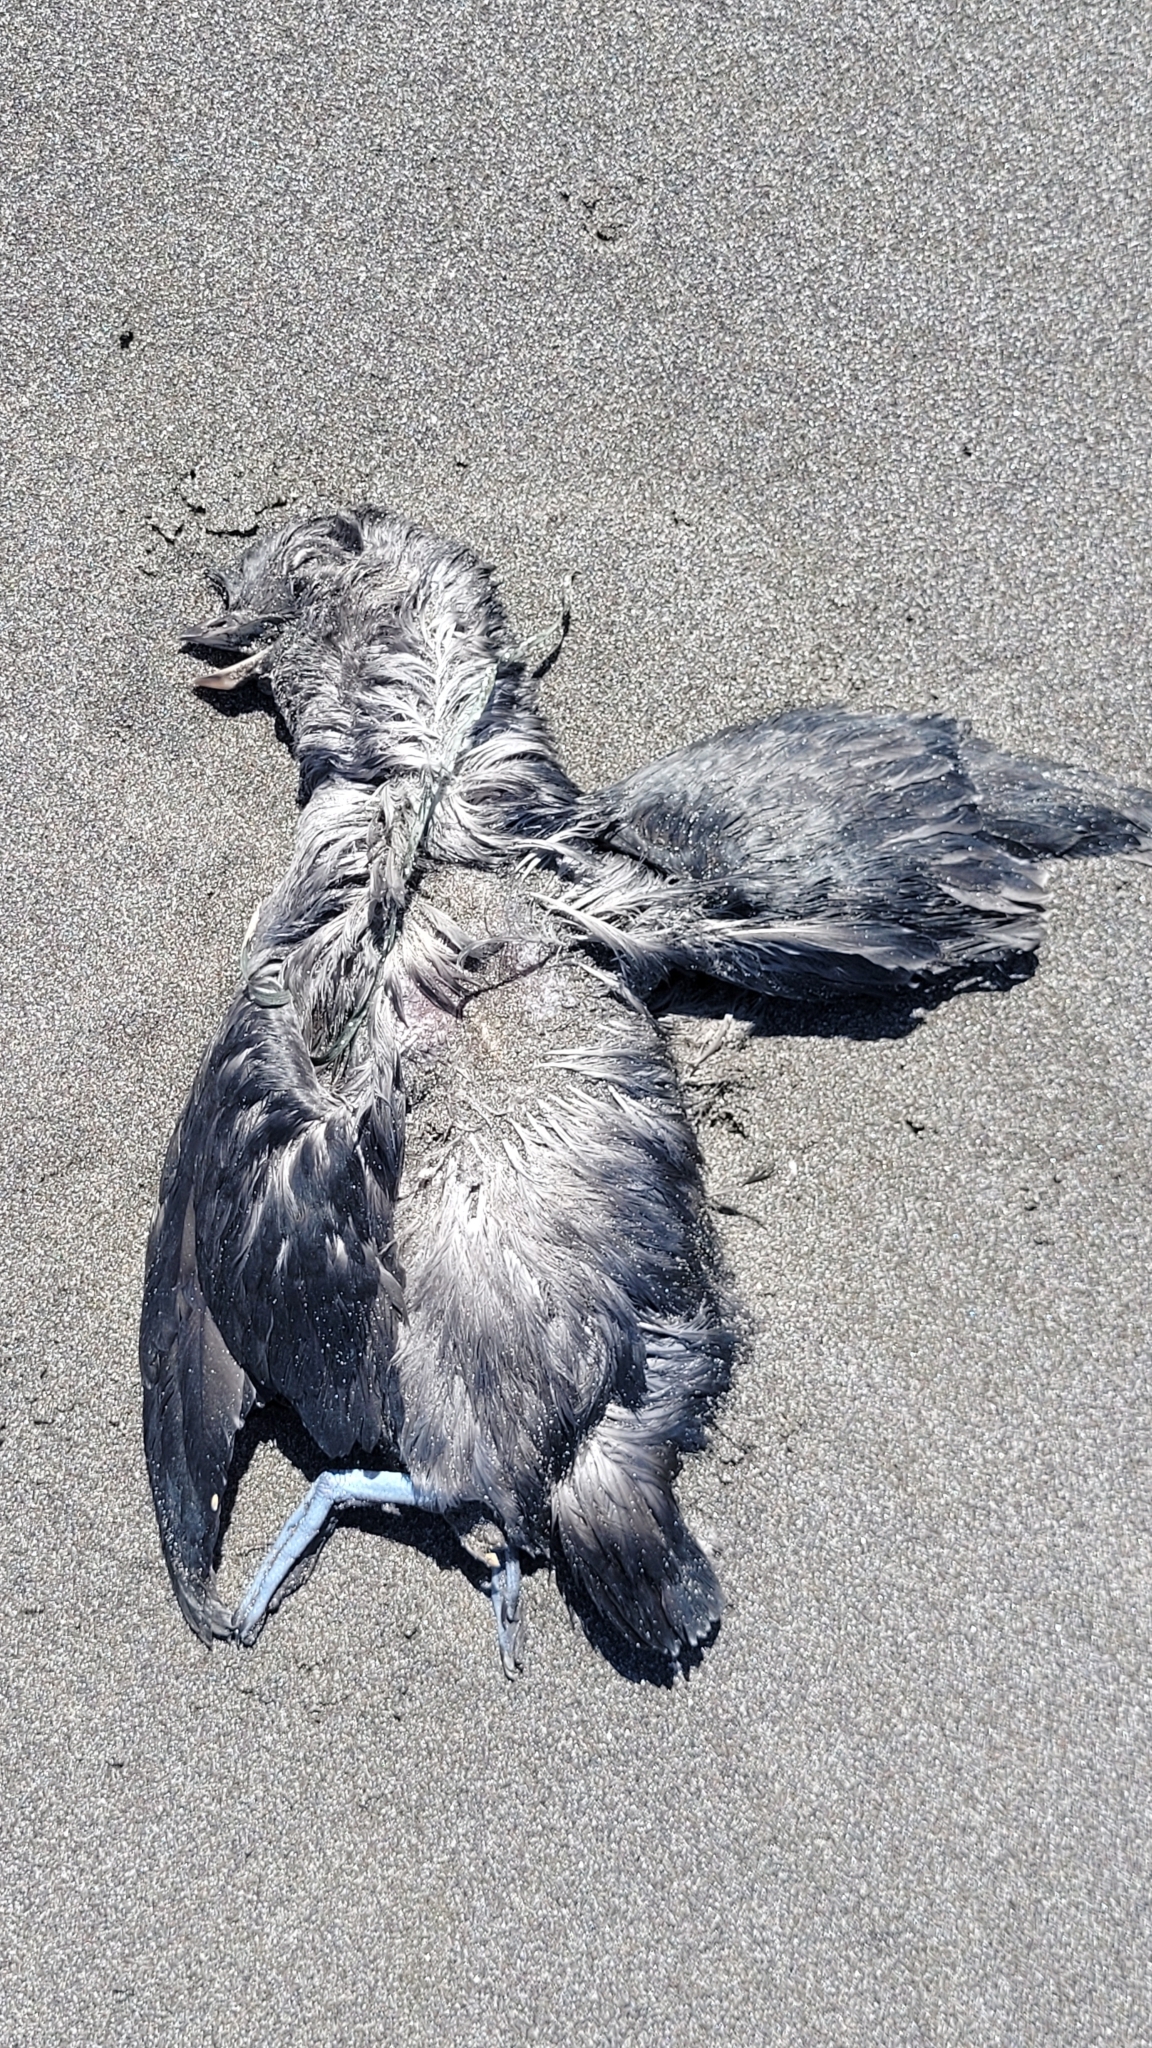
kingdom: Animalia
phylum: Chordata
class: Aves
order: Charadriiformes
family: Alcidae
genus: Aethia
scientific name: Aethia cristatella
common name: Crested auklet
